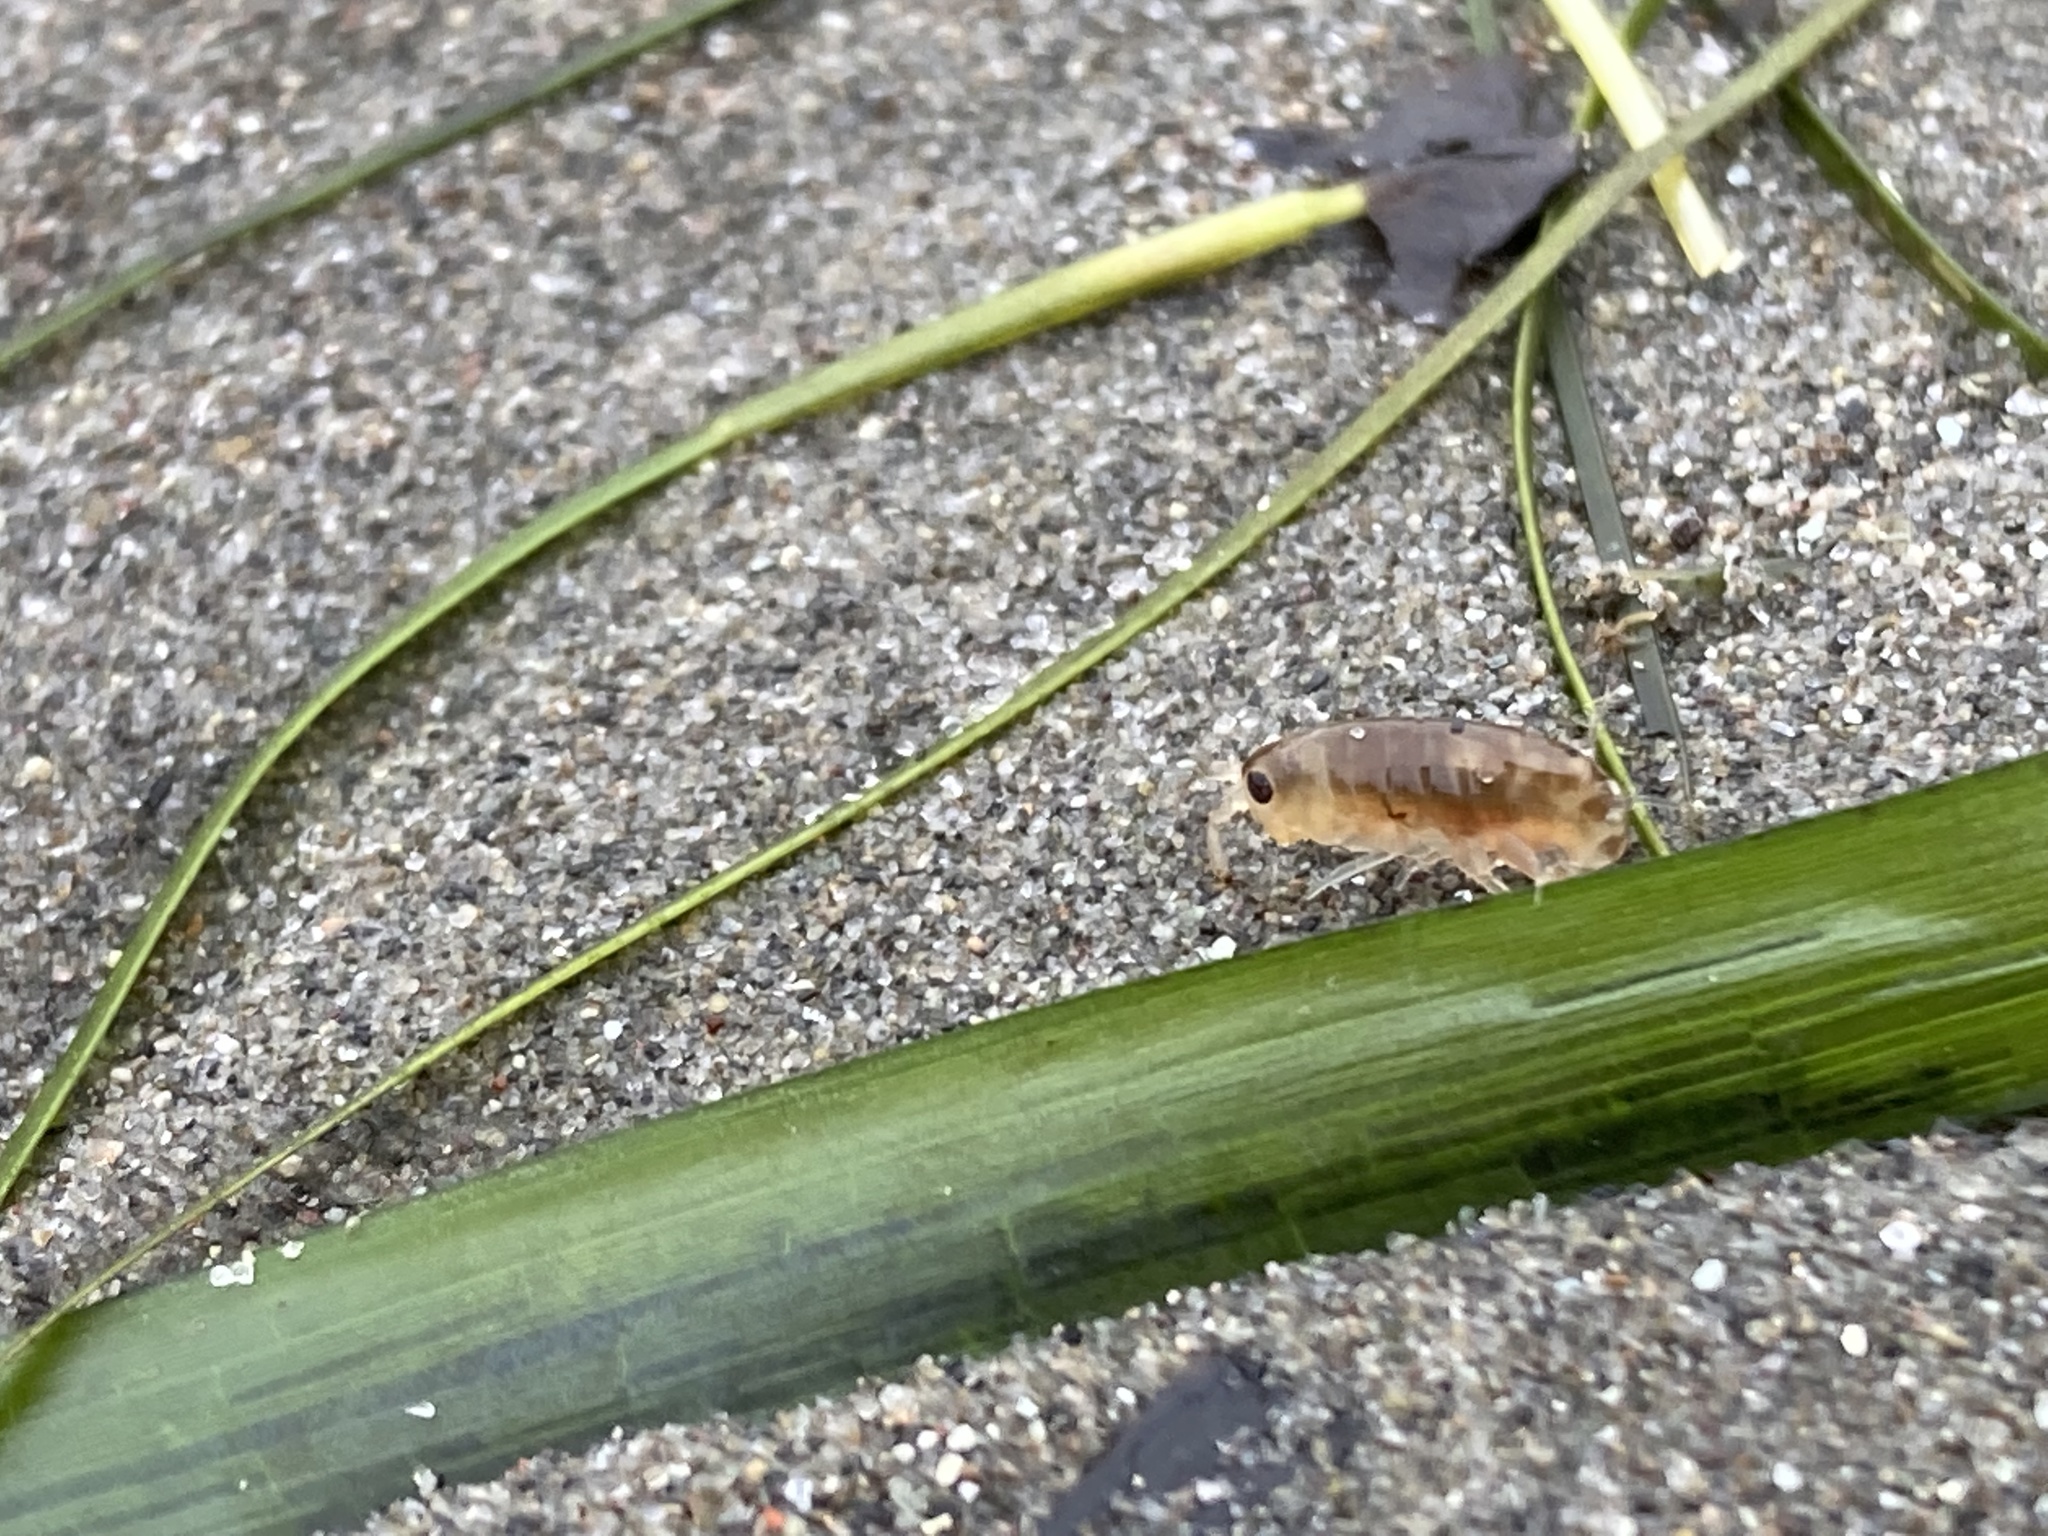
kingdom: Animalia
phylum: Arthropoda
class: Malacostraca
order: Amphipoda
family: Talitridae
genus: Megalorchestia
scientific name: Megalorchestia californiana
